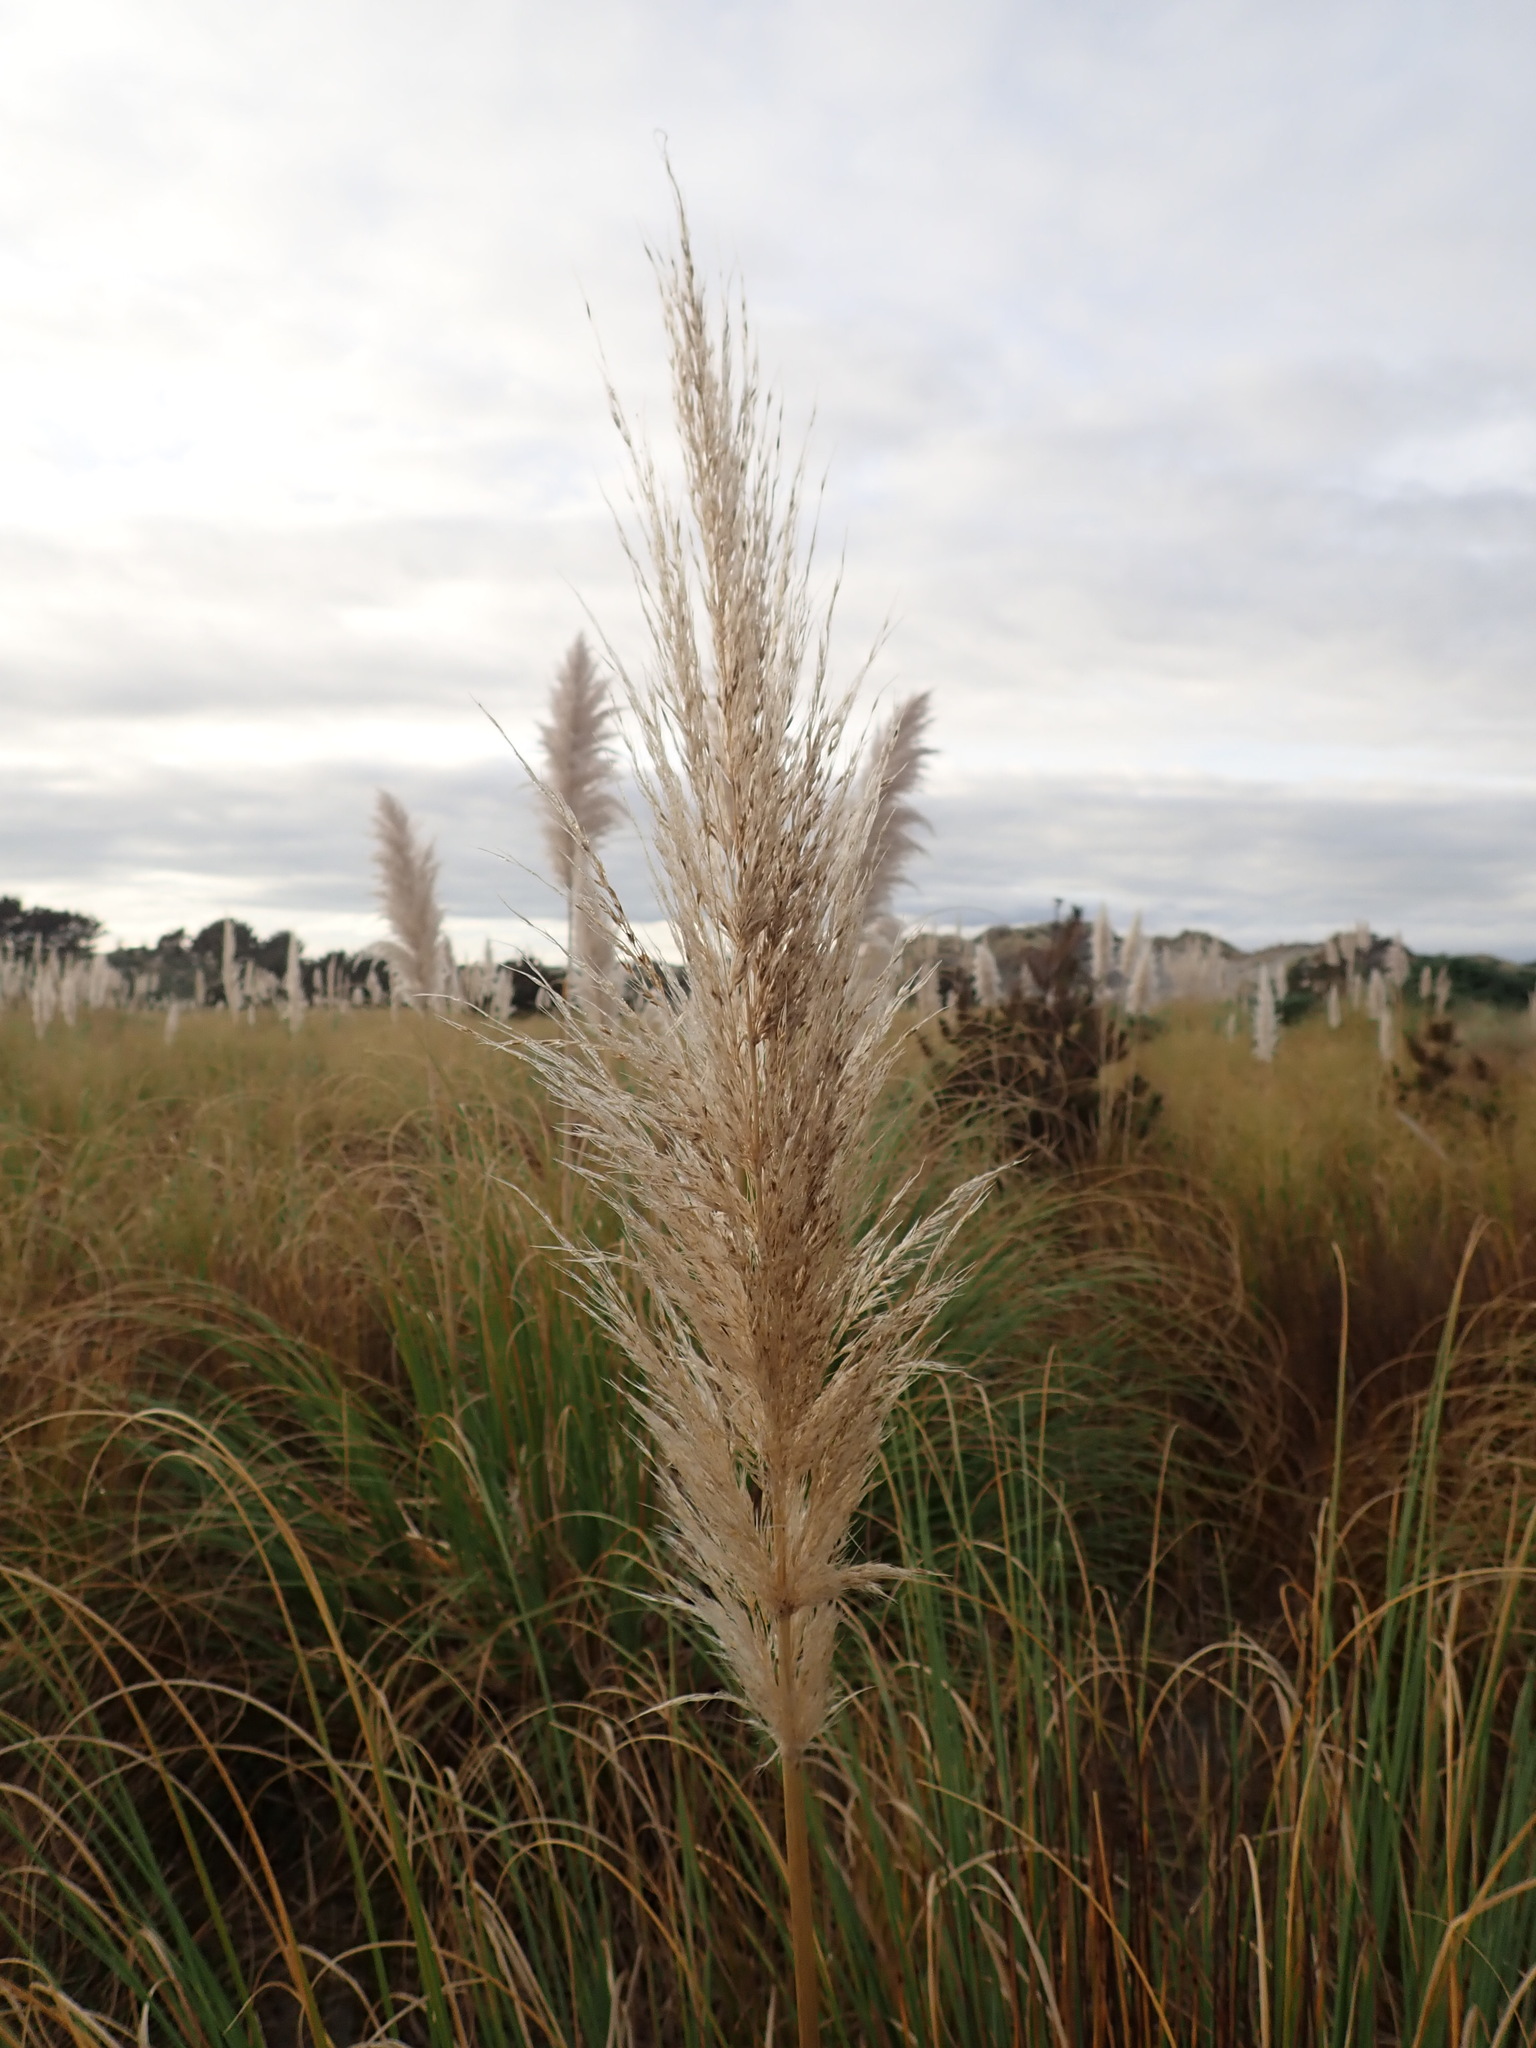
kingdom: Plantae
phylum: Tracheophyta
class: Liliopsida
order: Poales
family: Poaceae
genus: Cortaderia
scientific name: Cortaderia selloana
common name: Uruguayan pampas grass
